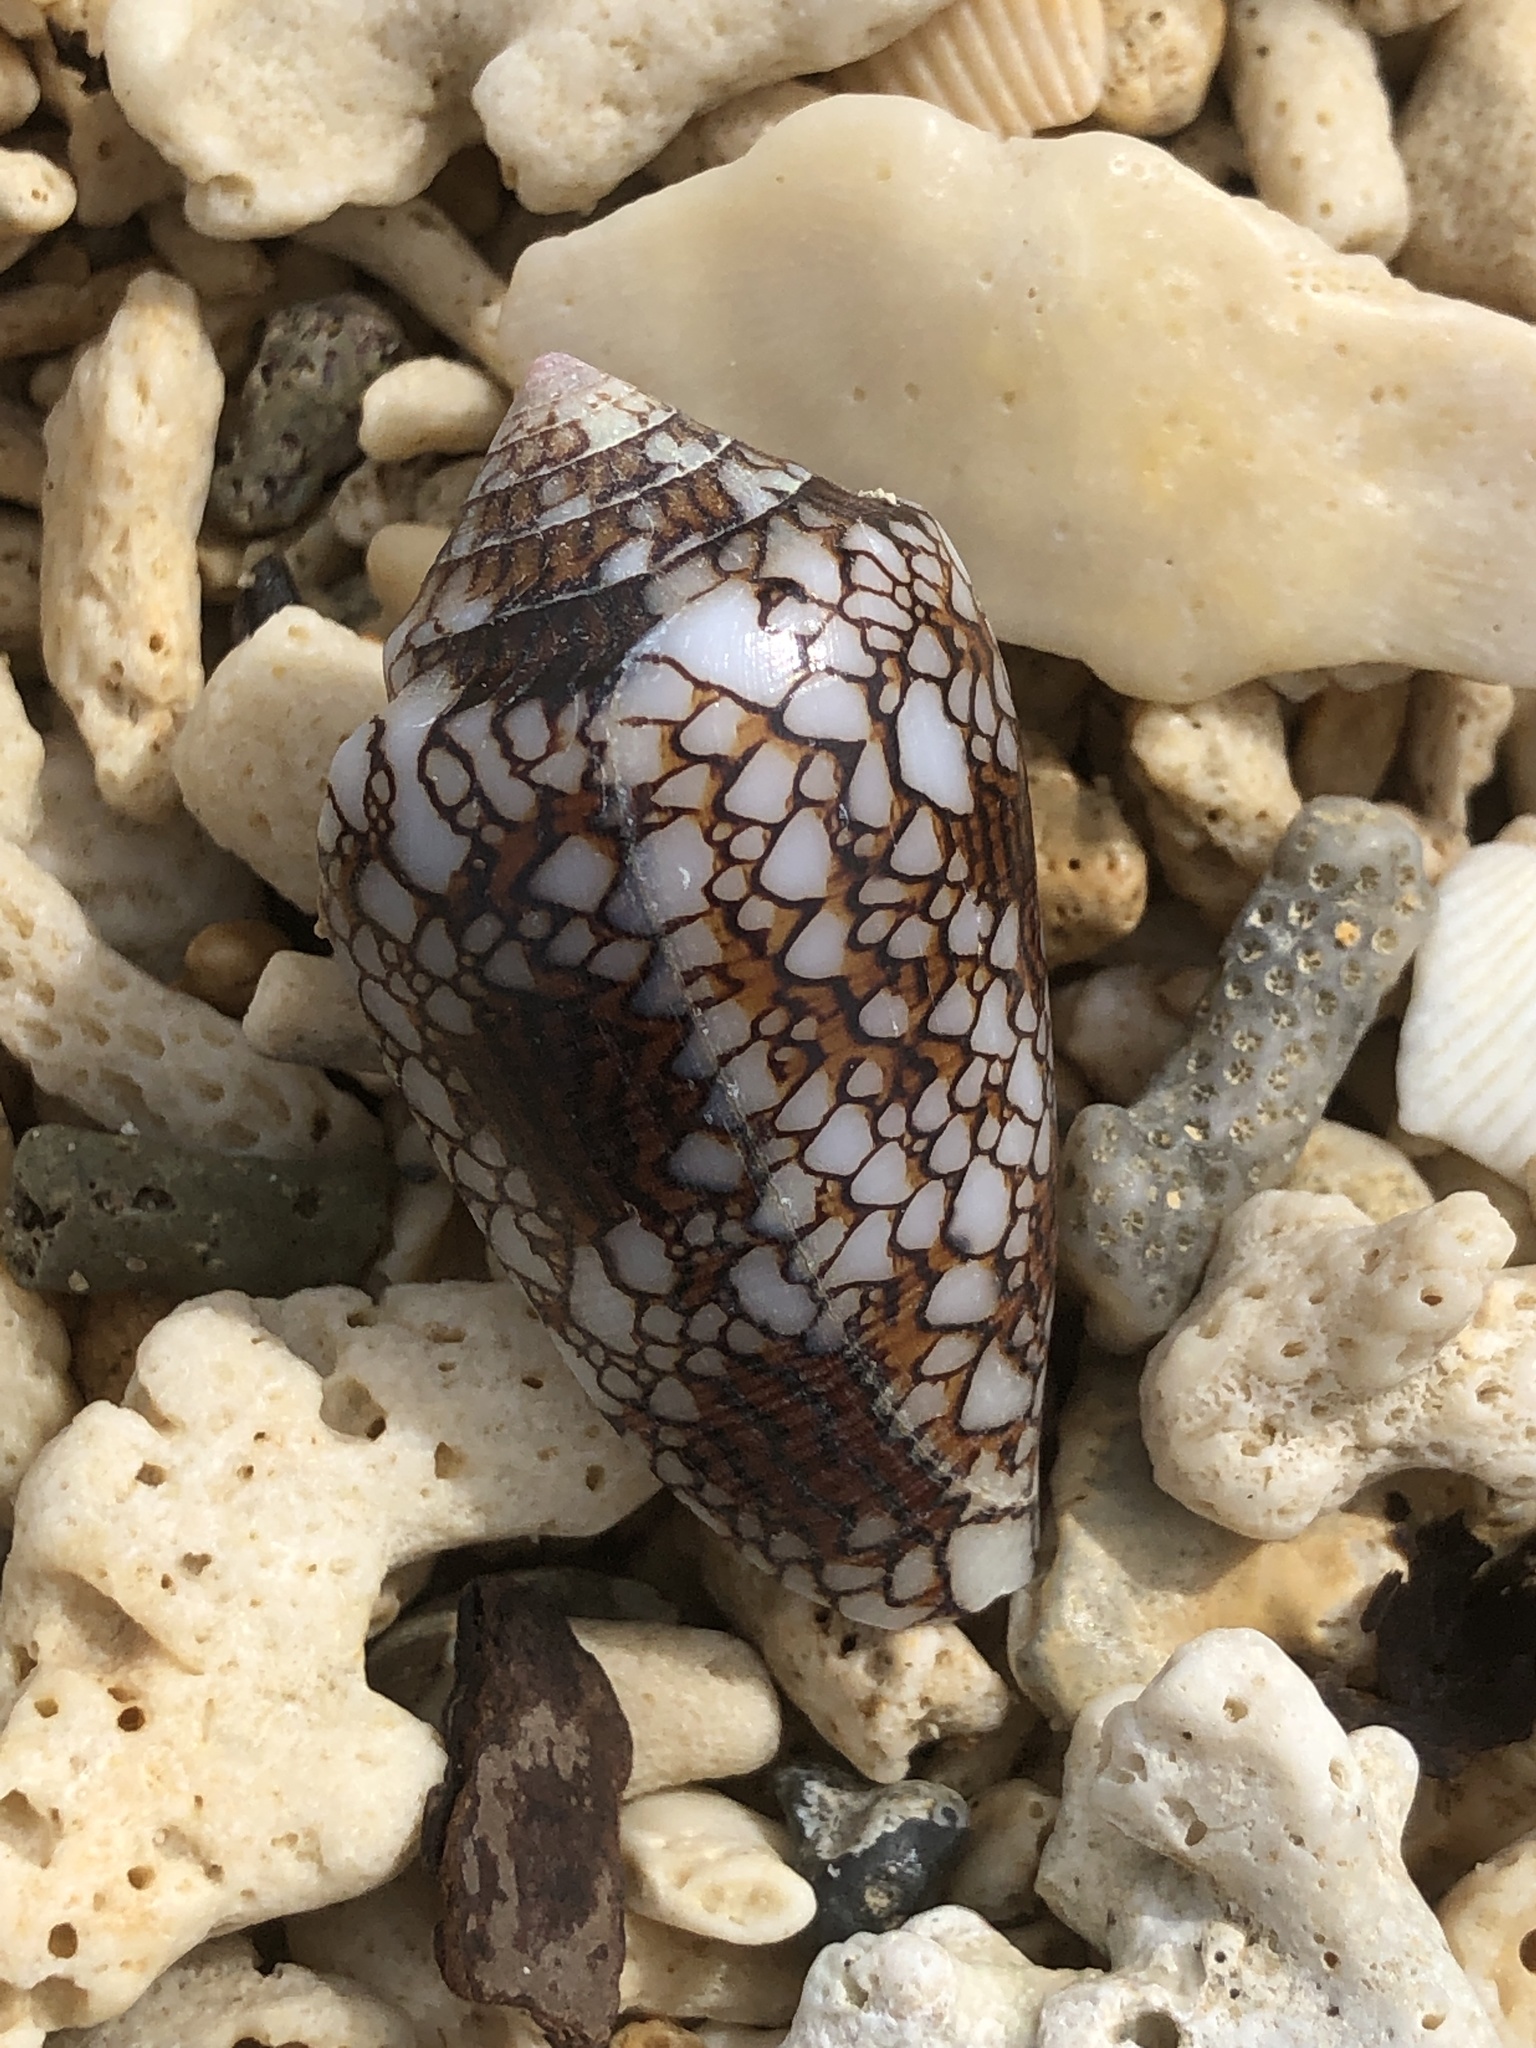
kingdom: Animalia
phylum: Mollusca
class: Gastropoda
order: Neogastropoda
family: Conidae
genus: Conus
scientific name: Conus textile
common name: Cloth-of-gold cone
